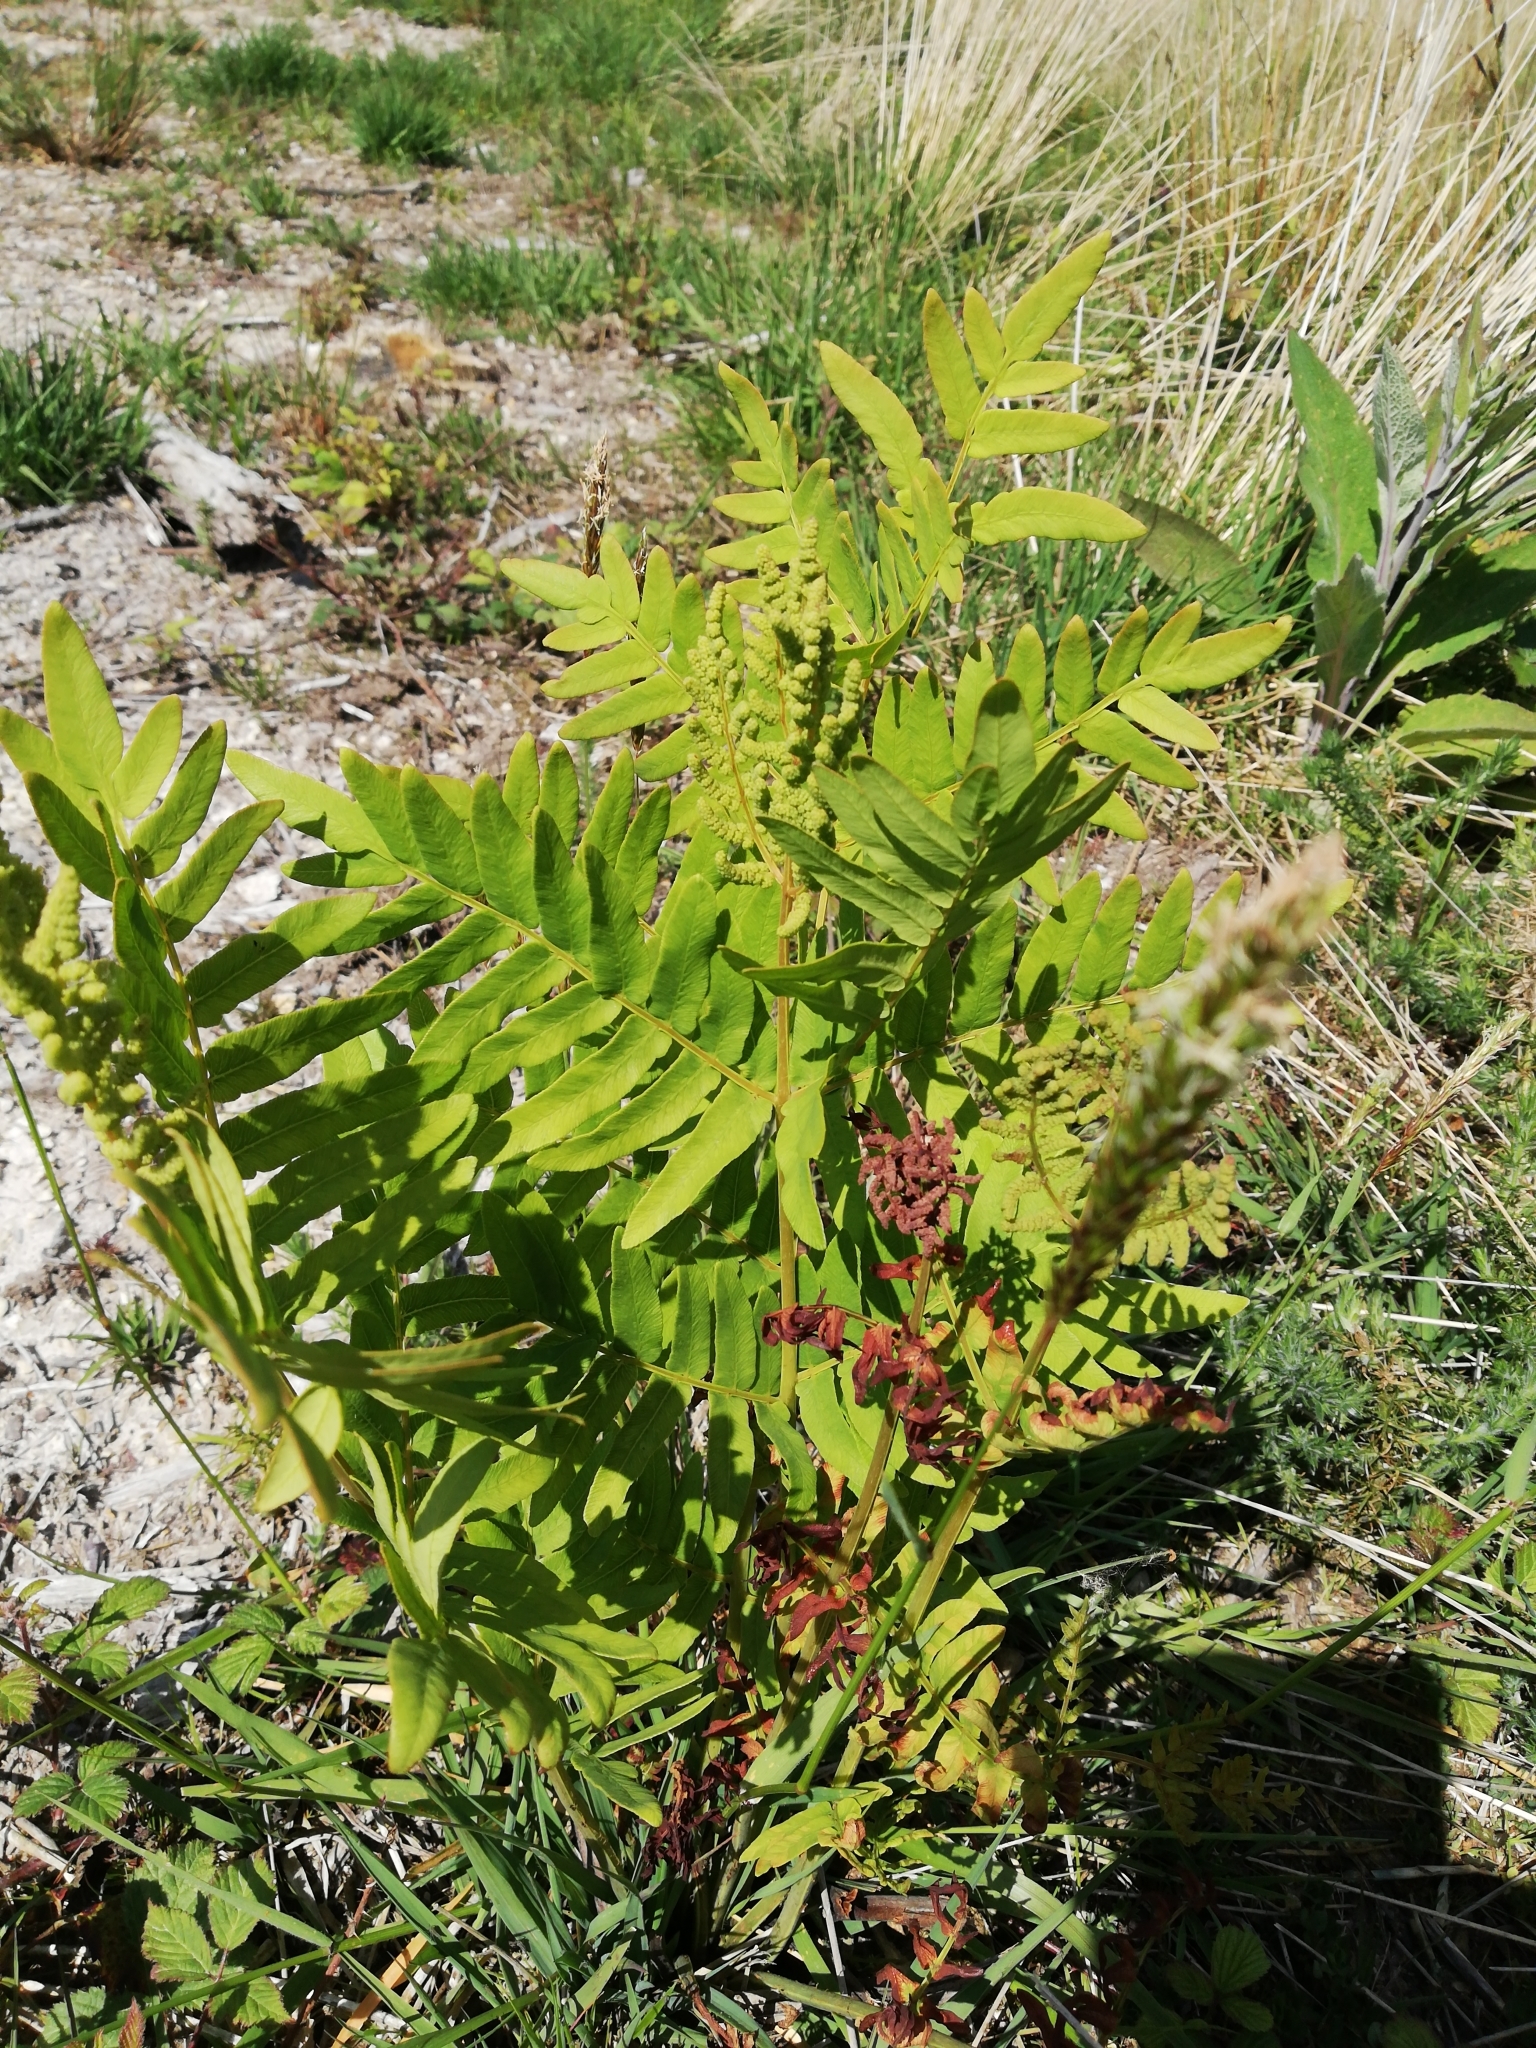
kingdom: Plantae
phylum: Tracheophyta
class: Polypodiopsida
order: Osmundales
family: Osmundaceae
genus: Osmunda
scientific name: Osmunda regalis
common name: Royal fern
